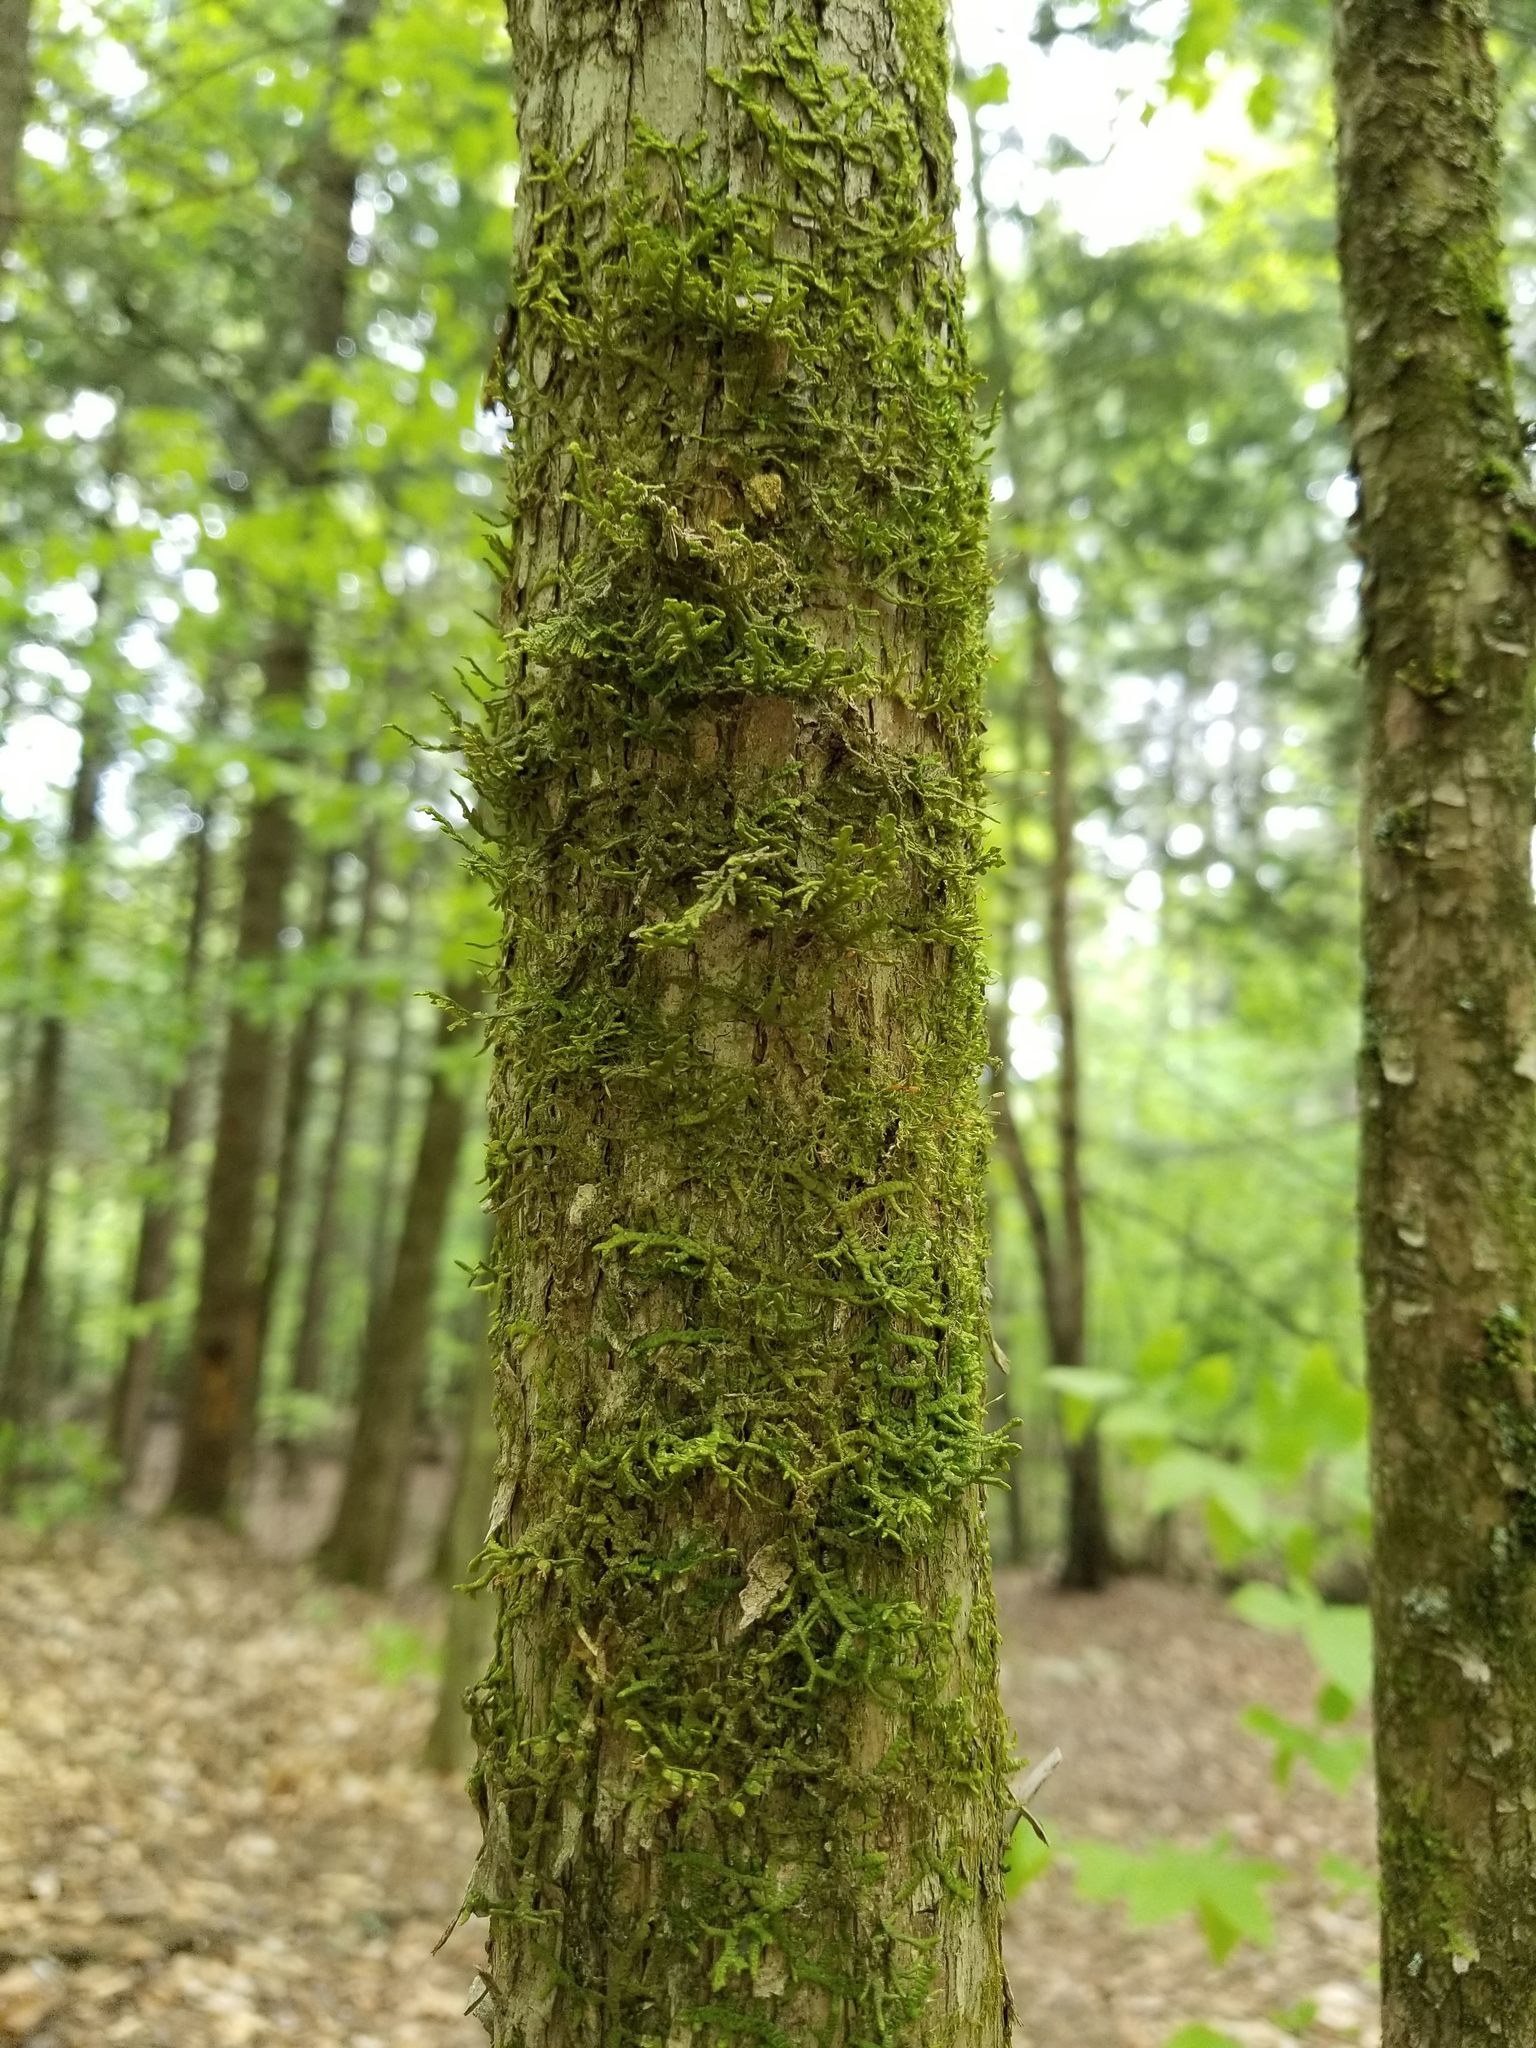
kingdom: Plantae
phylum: Tracheophyta
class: Magnoliopsida
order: Fagales
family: Betulaceae
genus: Ostrya
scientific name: Ostrya virginiana
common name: Ironwood
